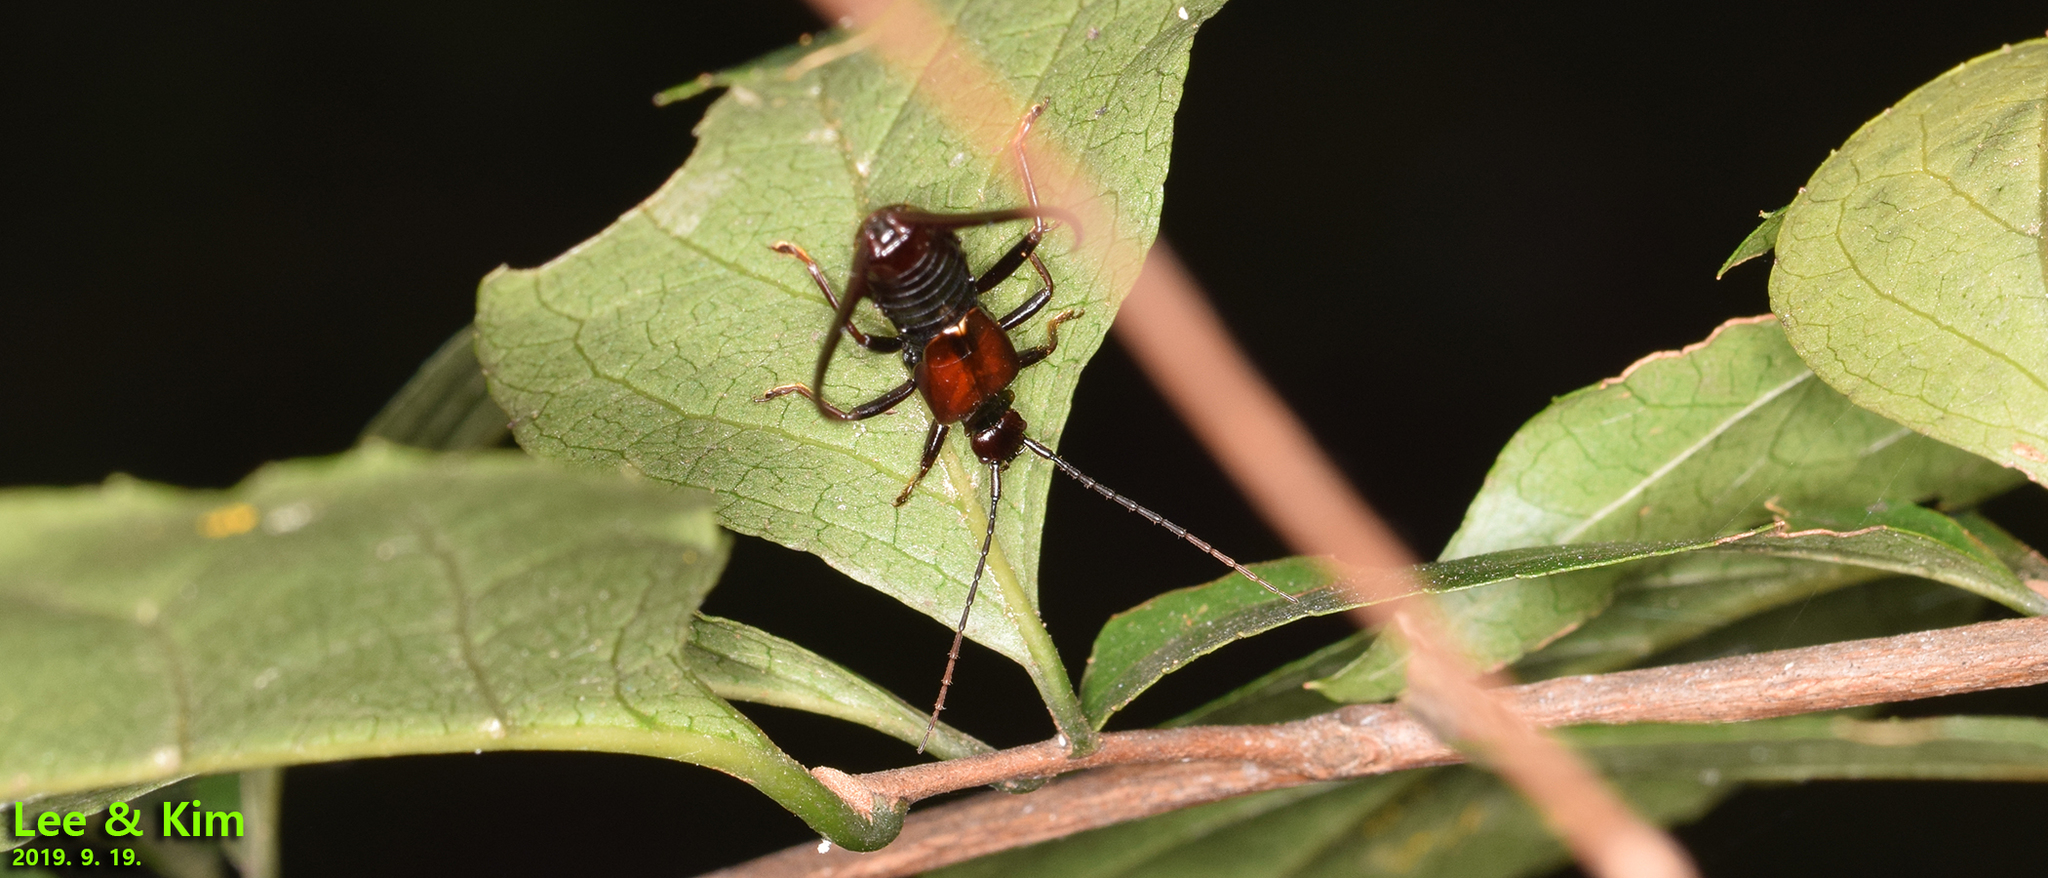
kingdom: Animalia
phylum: Arthropoda
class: Insecta
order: Dermaptera
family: Forficulidae
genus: Timomenus
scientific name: Timomenus komarovi
